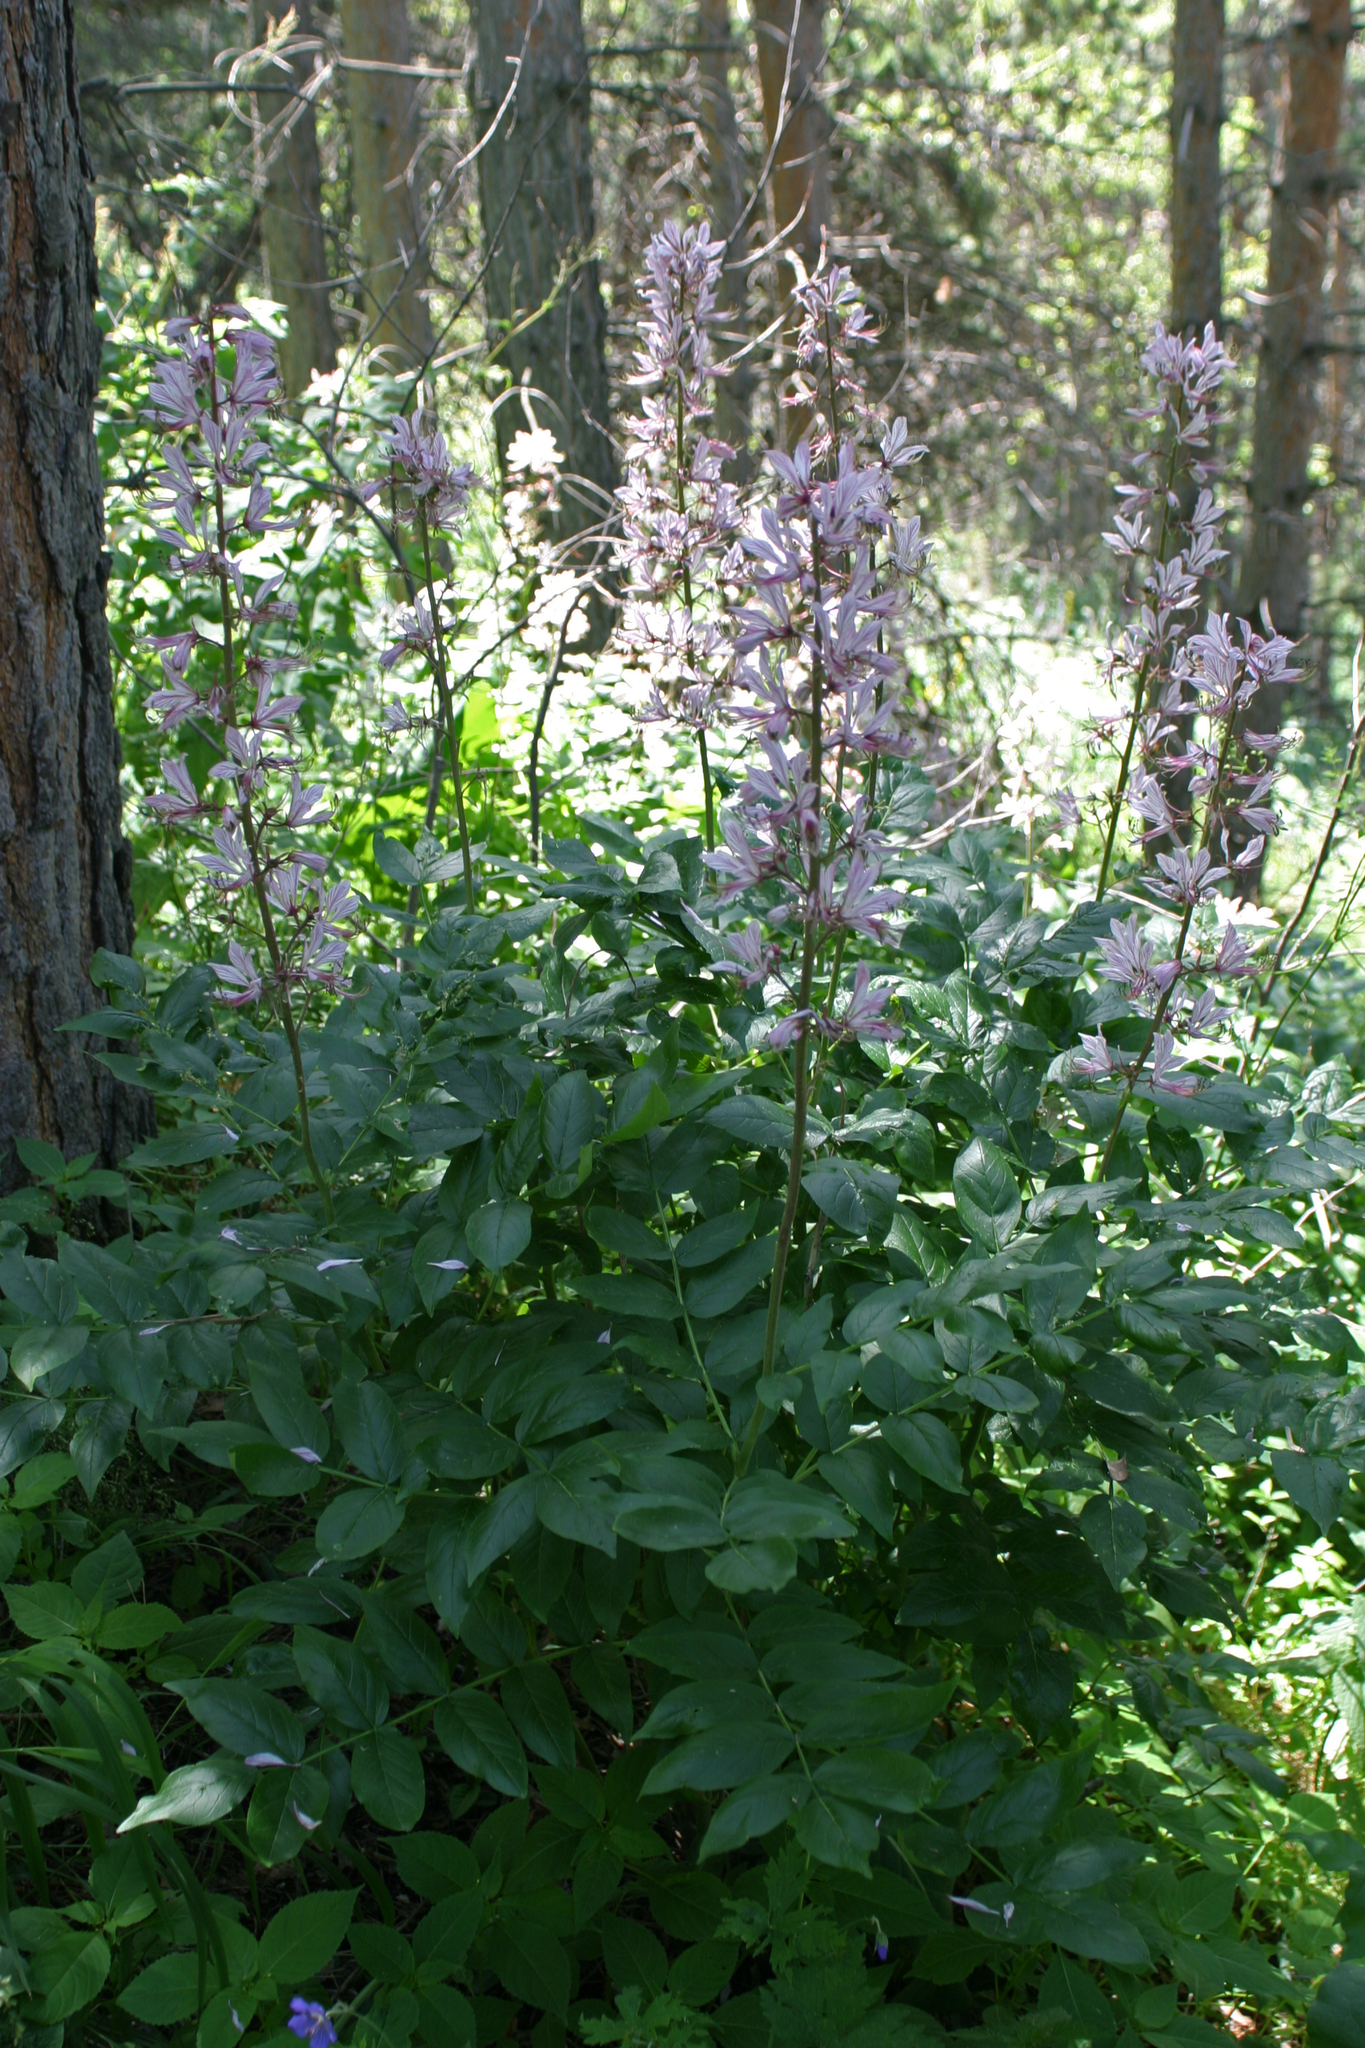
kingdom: Plantae
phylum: Tracheophyta
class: Magnoliopsida
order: Sapindales
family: Rutaceae
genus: Dictamnus
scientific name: Dictamnus albus
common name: Gasplant
